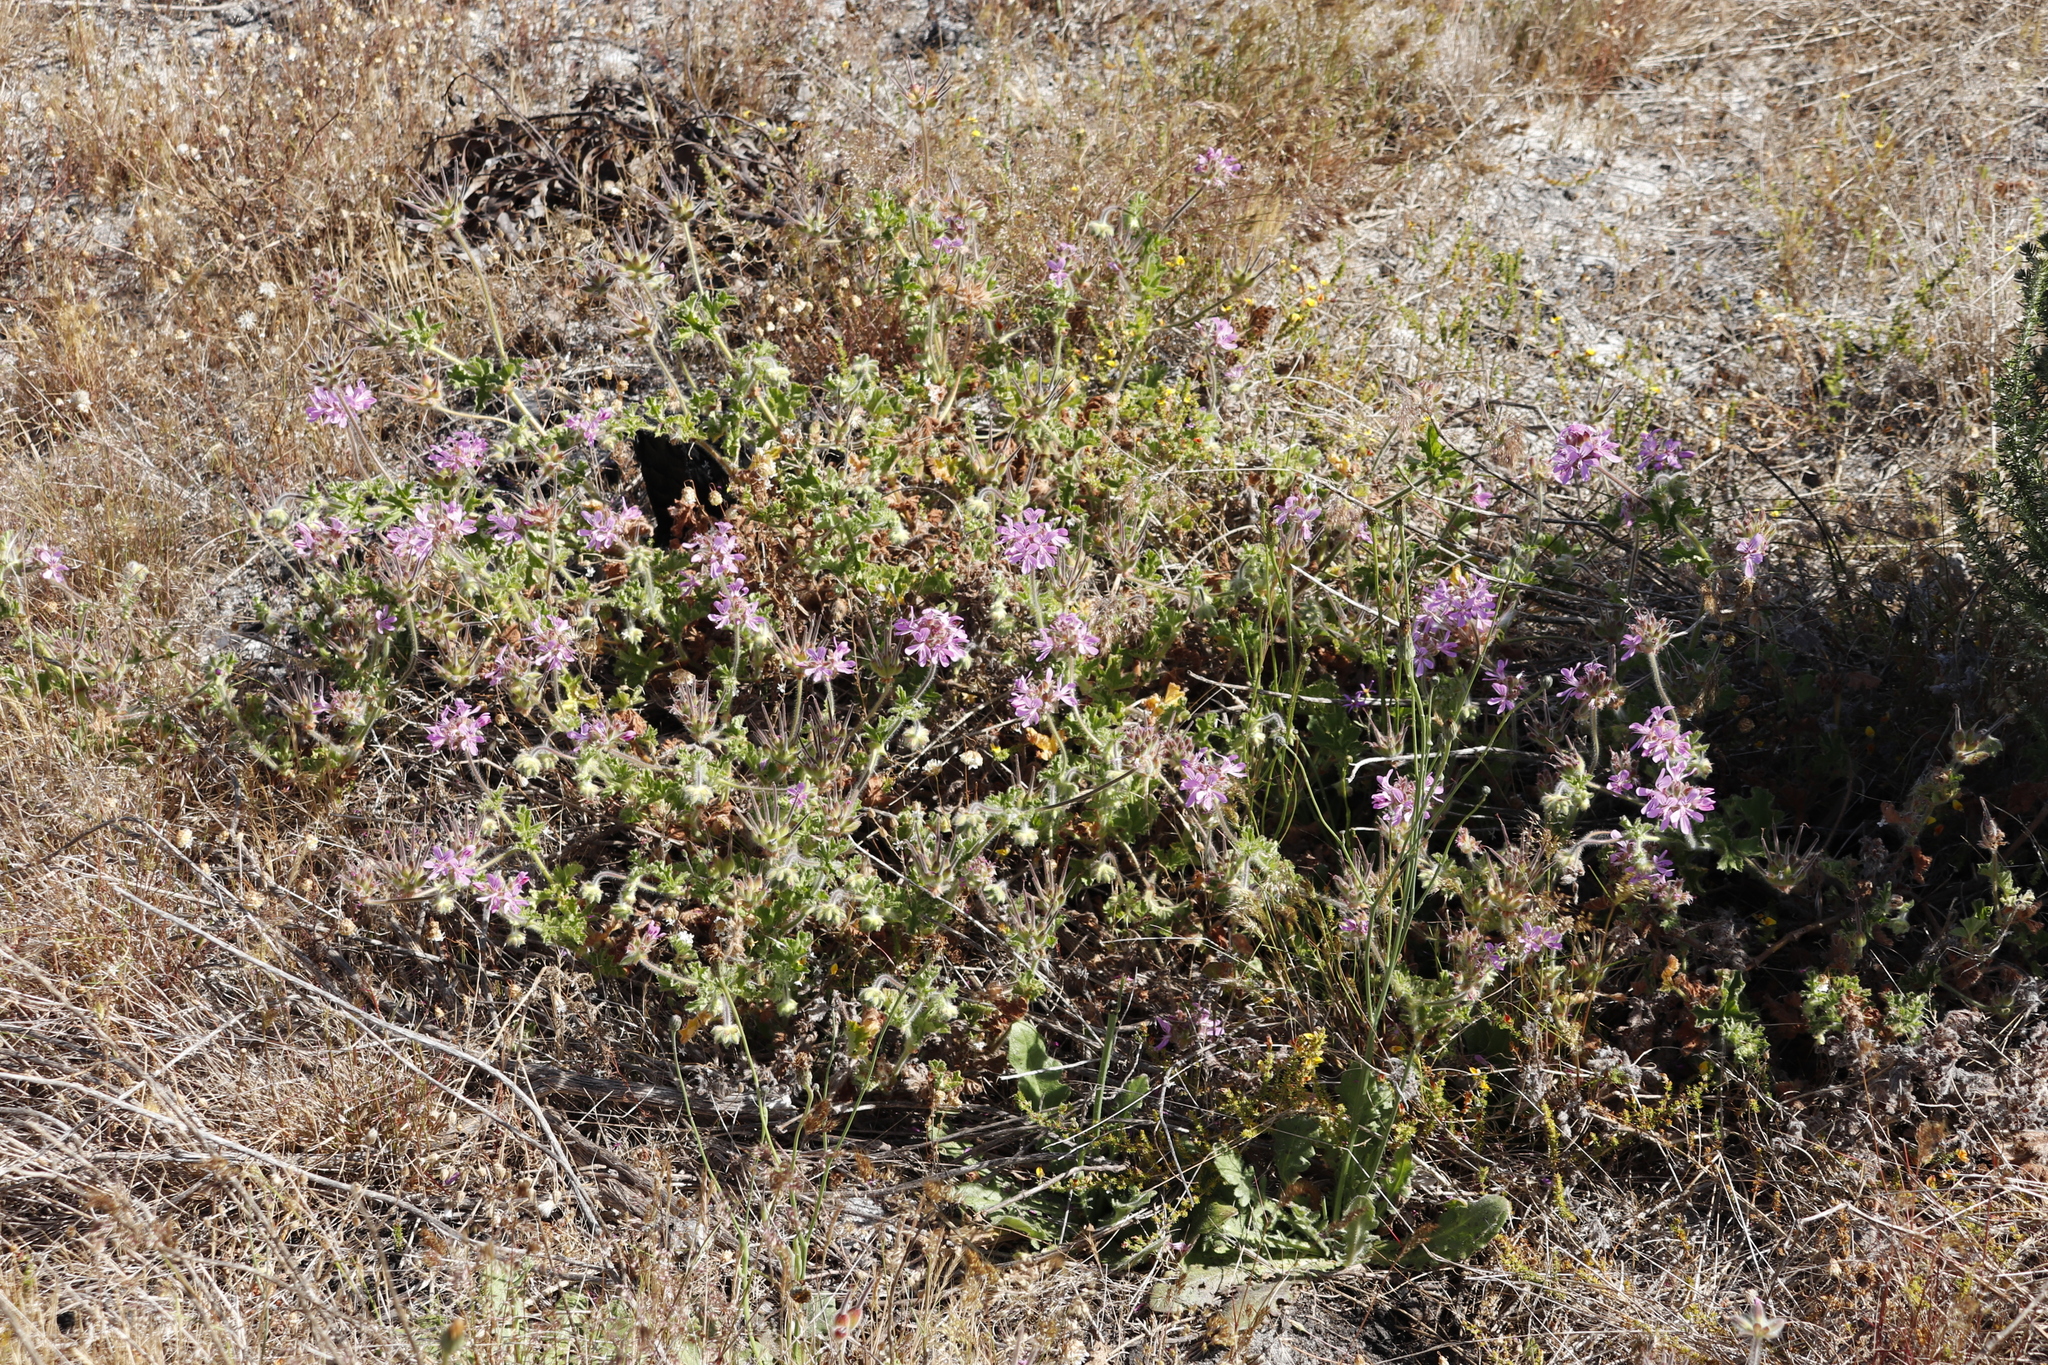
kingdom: Plantae
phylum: Tracheophyta
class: Magnoliopsida
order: Geraniales
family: Geraniaceae
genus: Pelargonium
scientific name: Pelargonium capitatum
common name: Rose scented geranium
